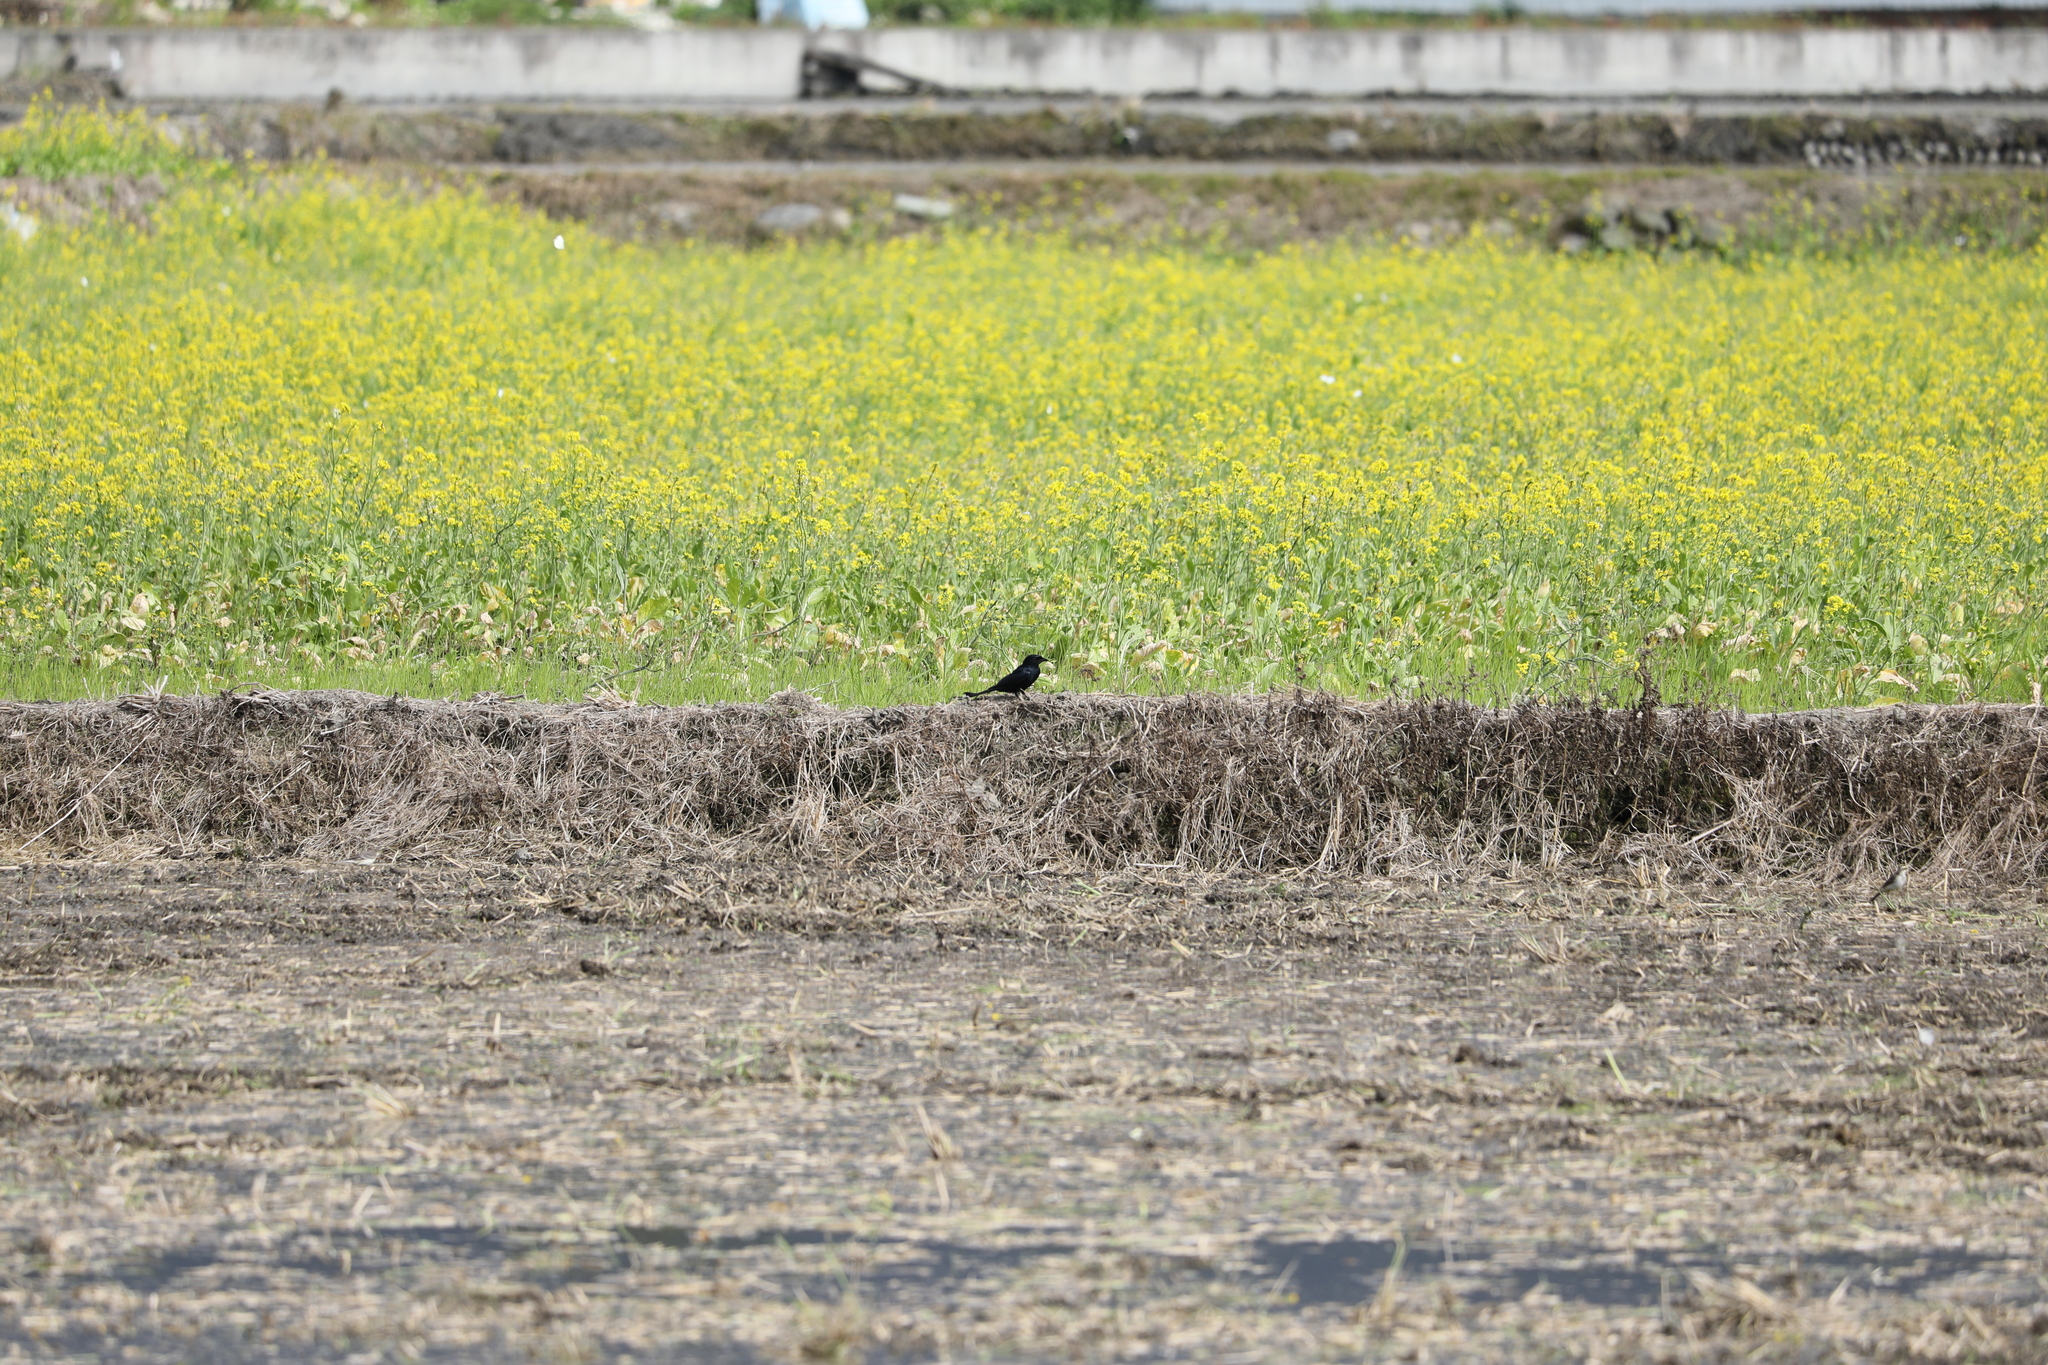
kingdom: Animalia
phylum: Chordata
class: Aves
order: Passeriformes
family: Dicruridae
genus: Dicrurus
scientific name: Dicrurus macrocercus
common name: Black drongo
